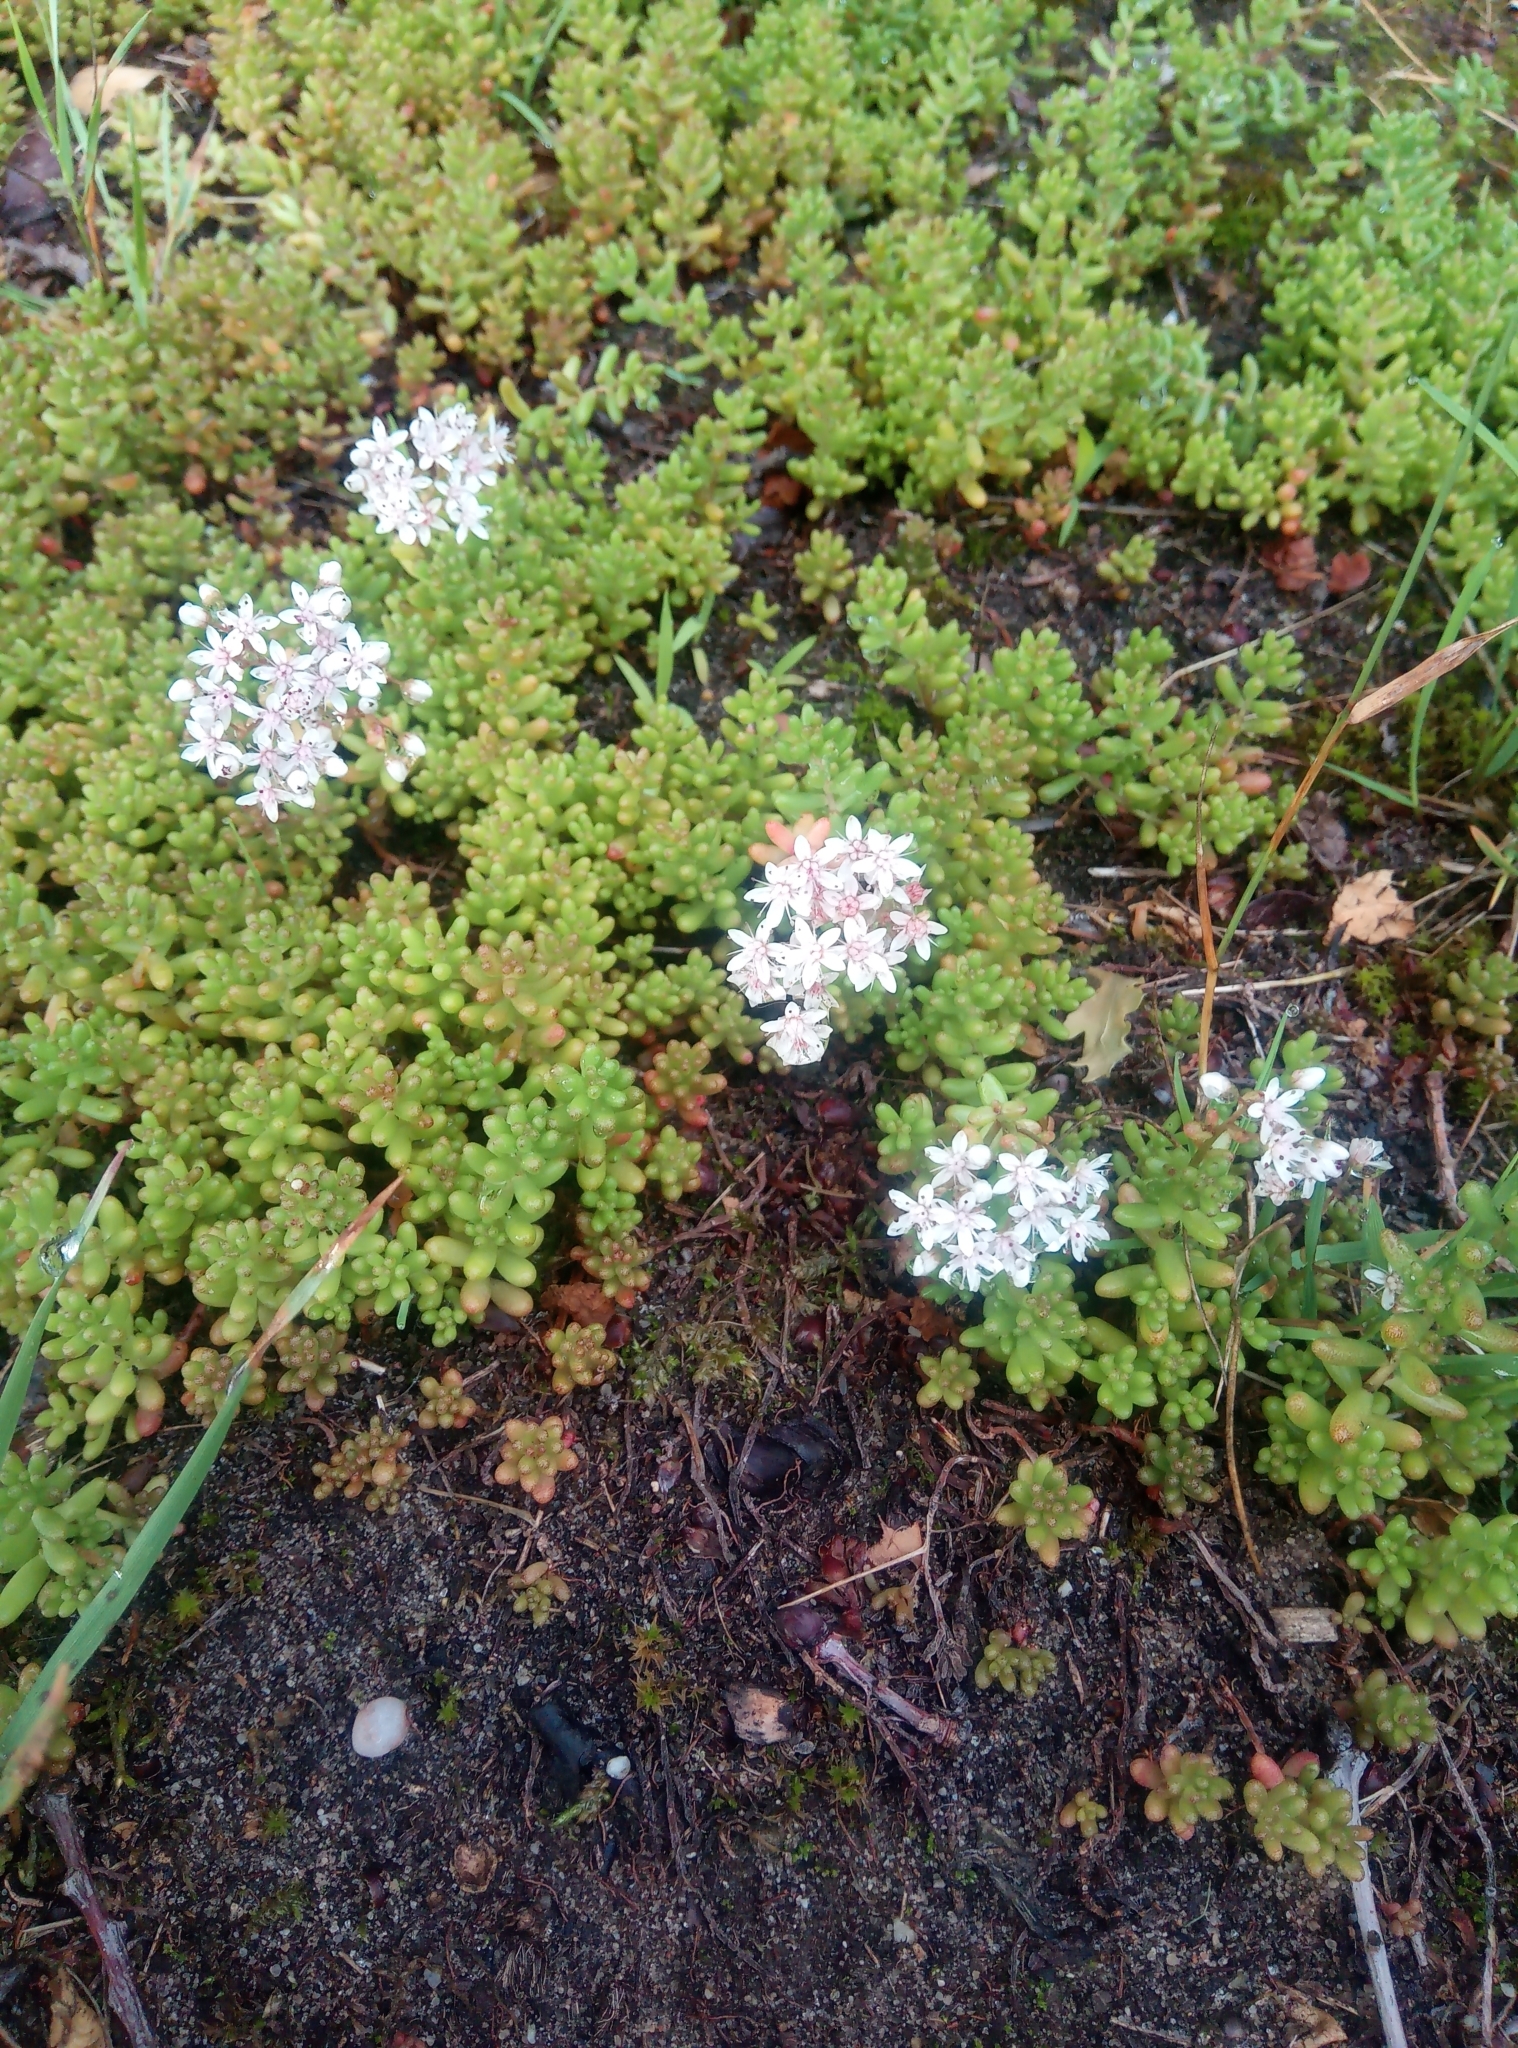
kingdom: Plantae
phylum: Tracheophyta
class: Magnoliopsida
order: Saxifragales
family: Crassulaceae
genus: Sedum
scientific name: Sedum album
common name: White stonecrop
